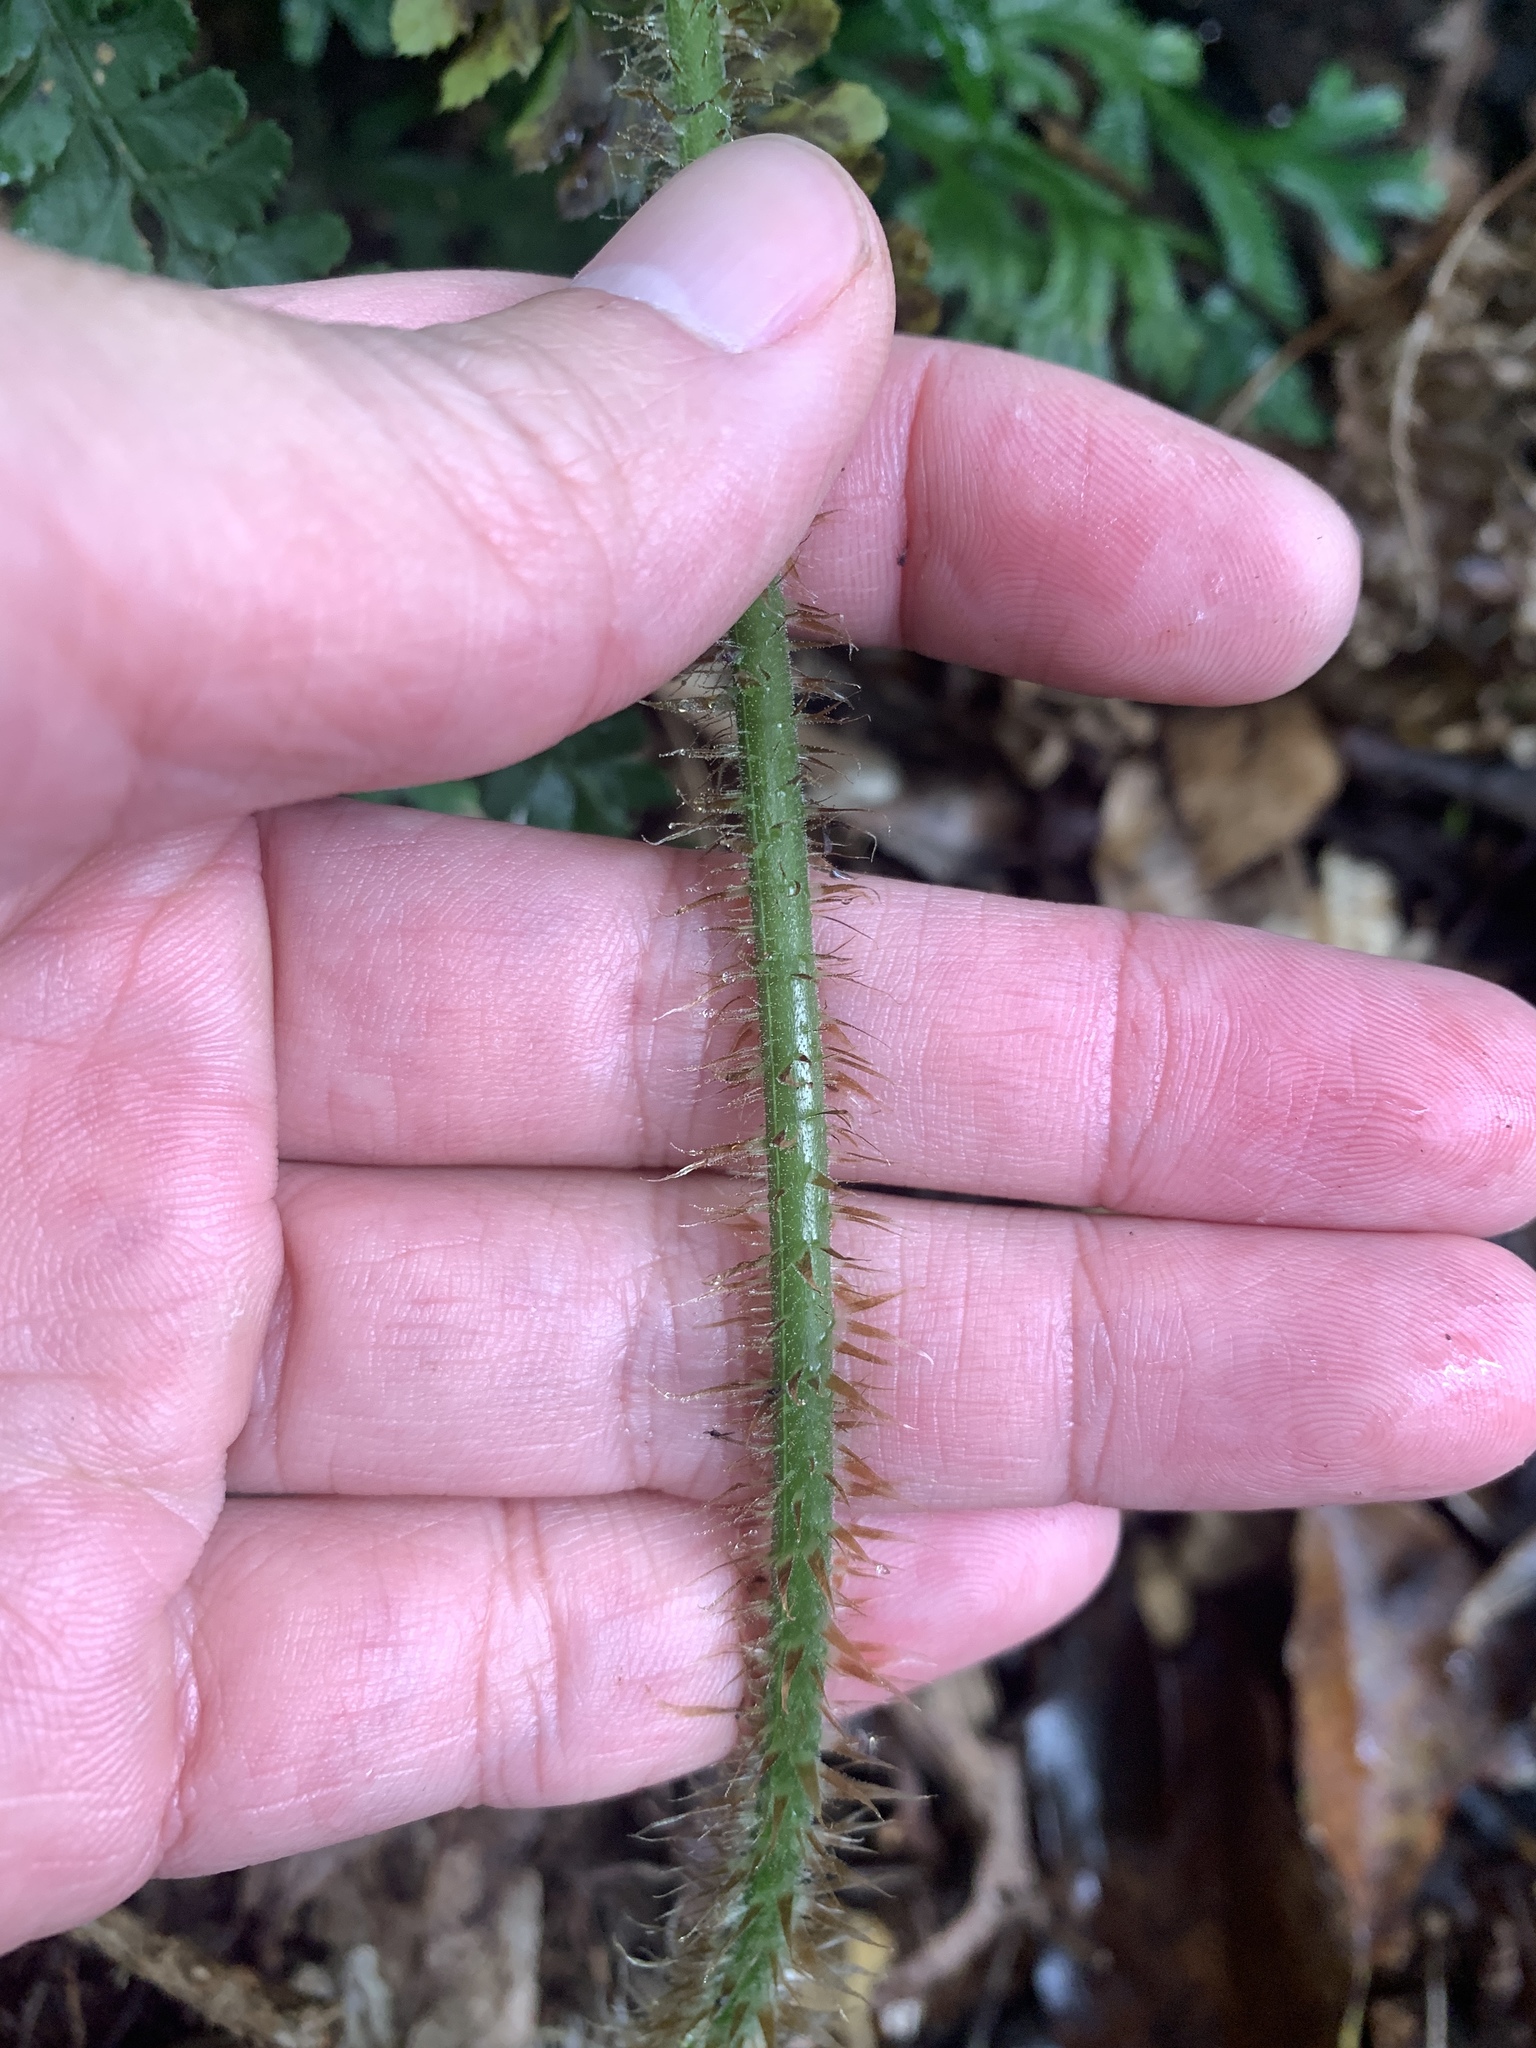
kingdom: Plantae
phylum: Tracheophyta
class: Polypodiopsida
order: Polypodiales
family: Dryopteridaceae
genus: Dryopteris
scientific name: Dryopteris hendersonii
